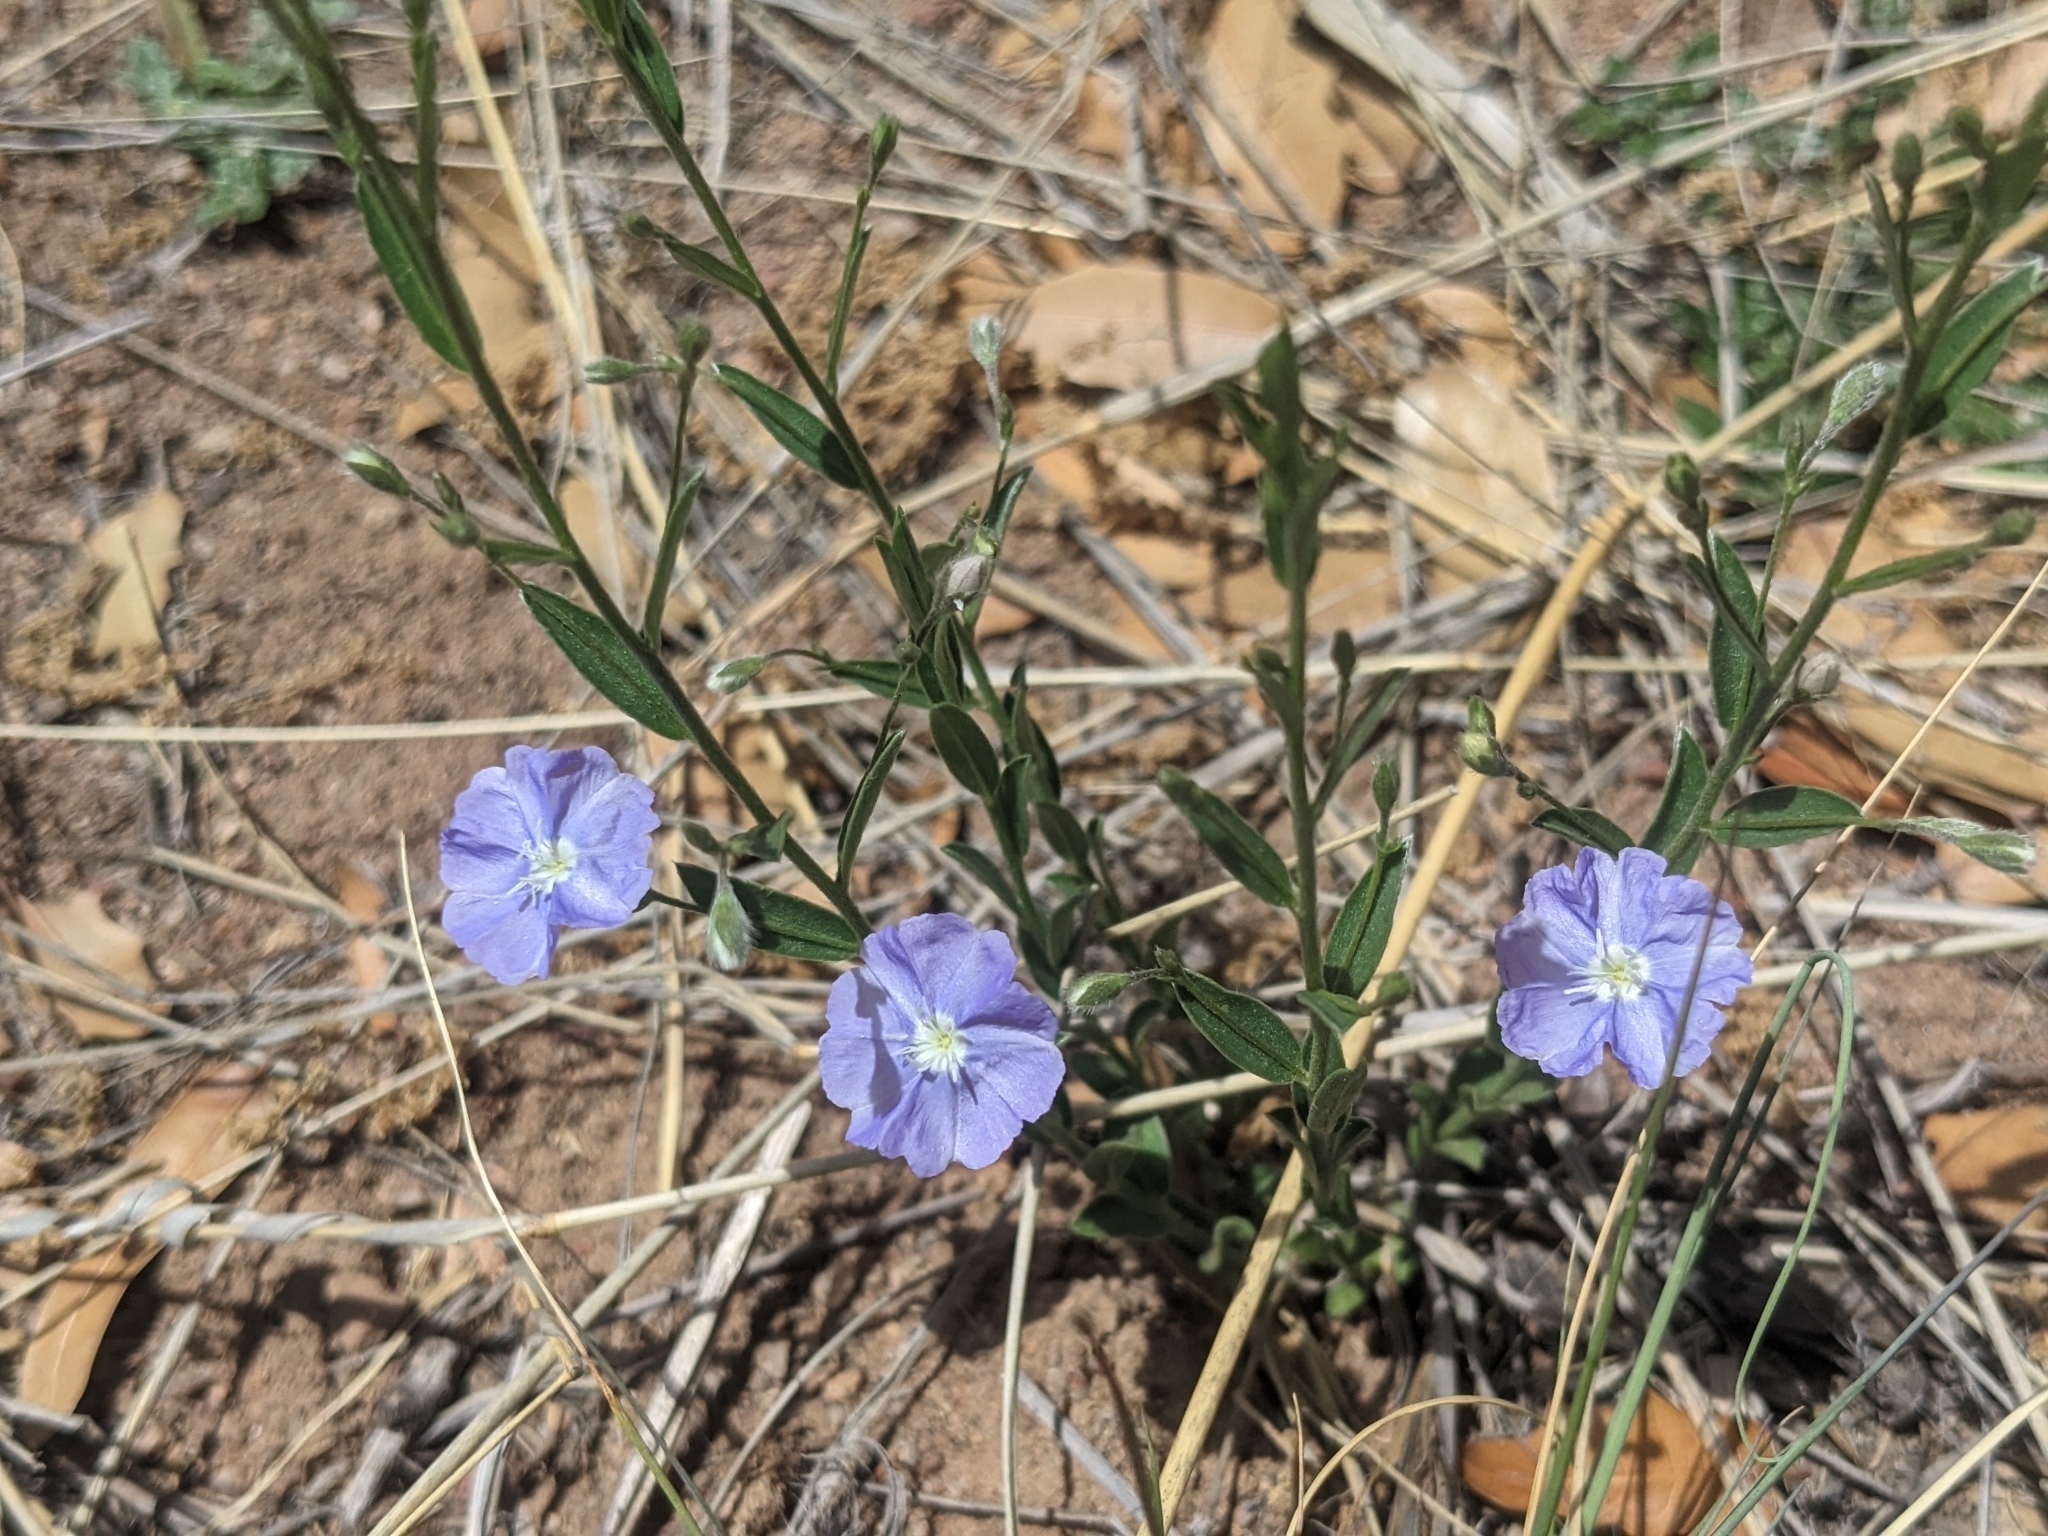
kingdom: Plantae
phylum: Tracheophyta
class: Magnoliopsida
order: Solanales
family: Convolvulaceae
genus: Evolvulus
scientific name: Evolvulus arizonicus
